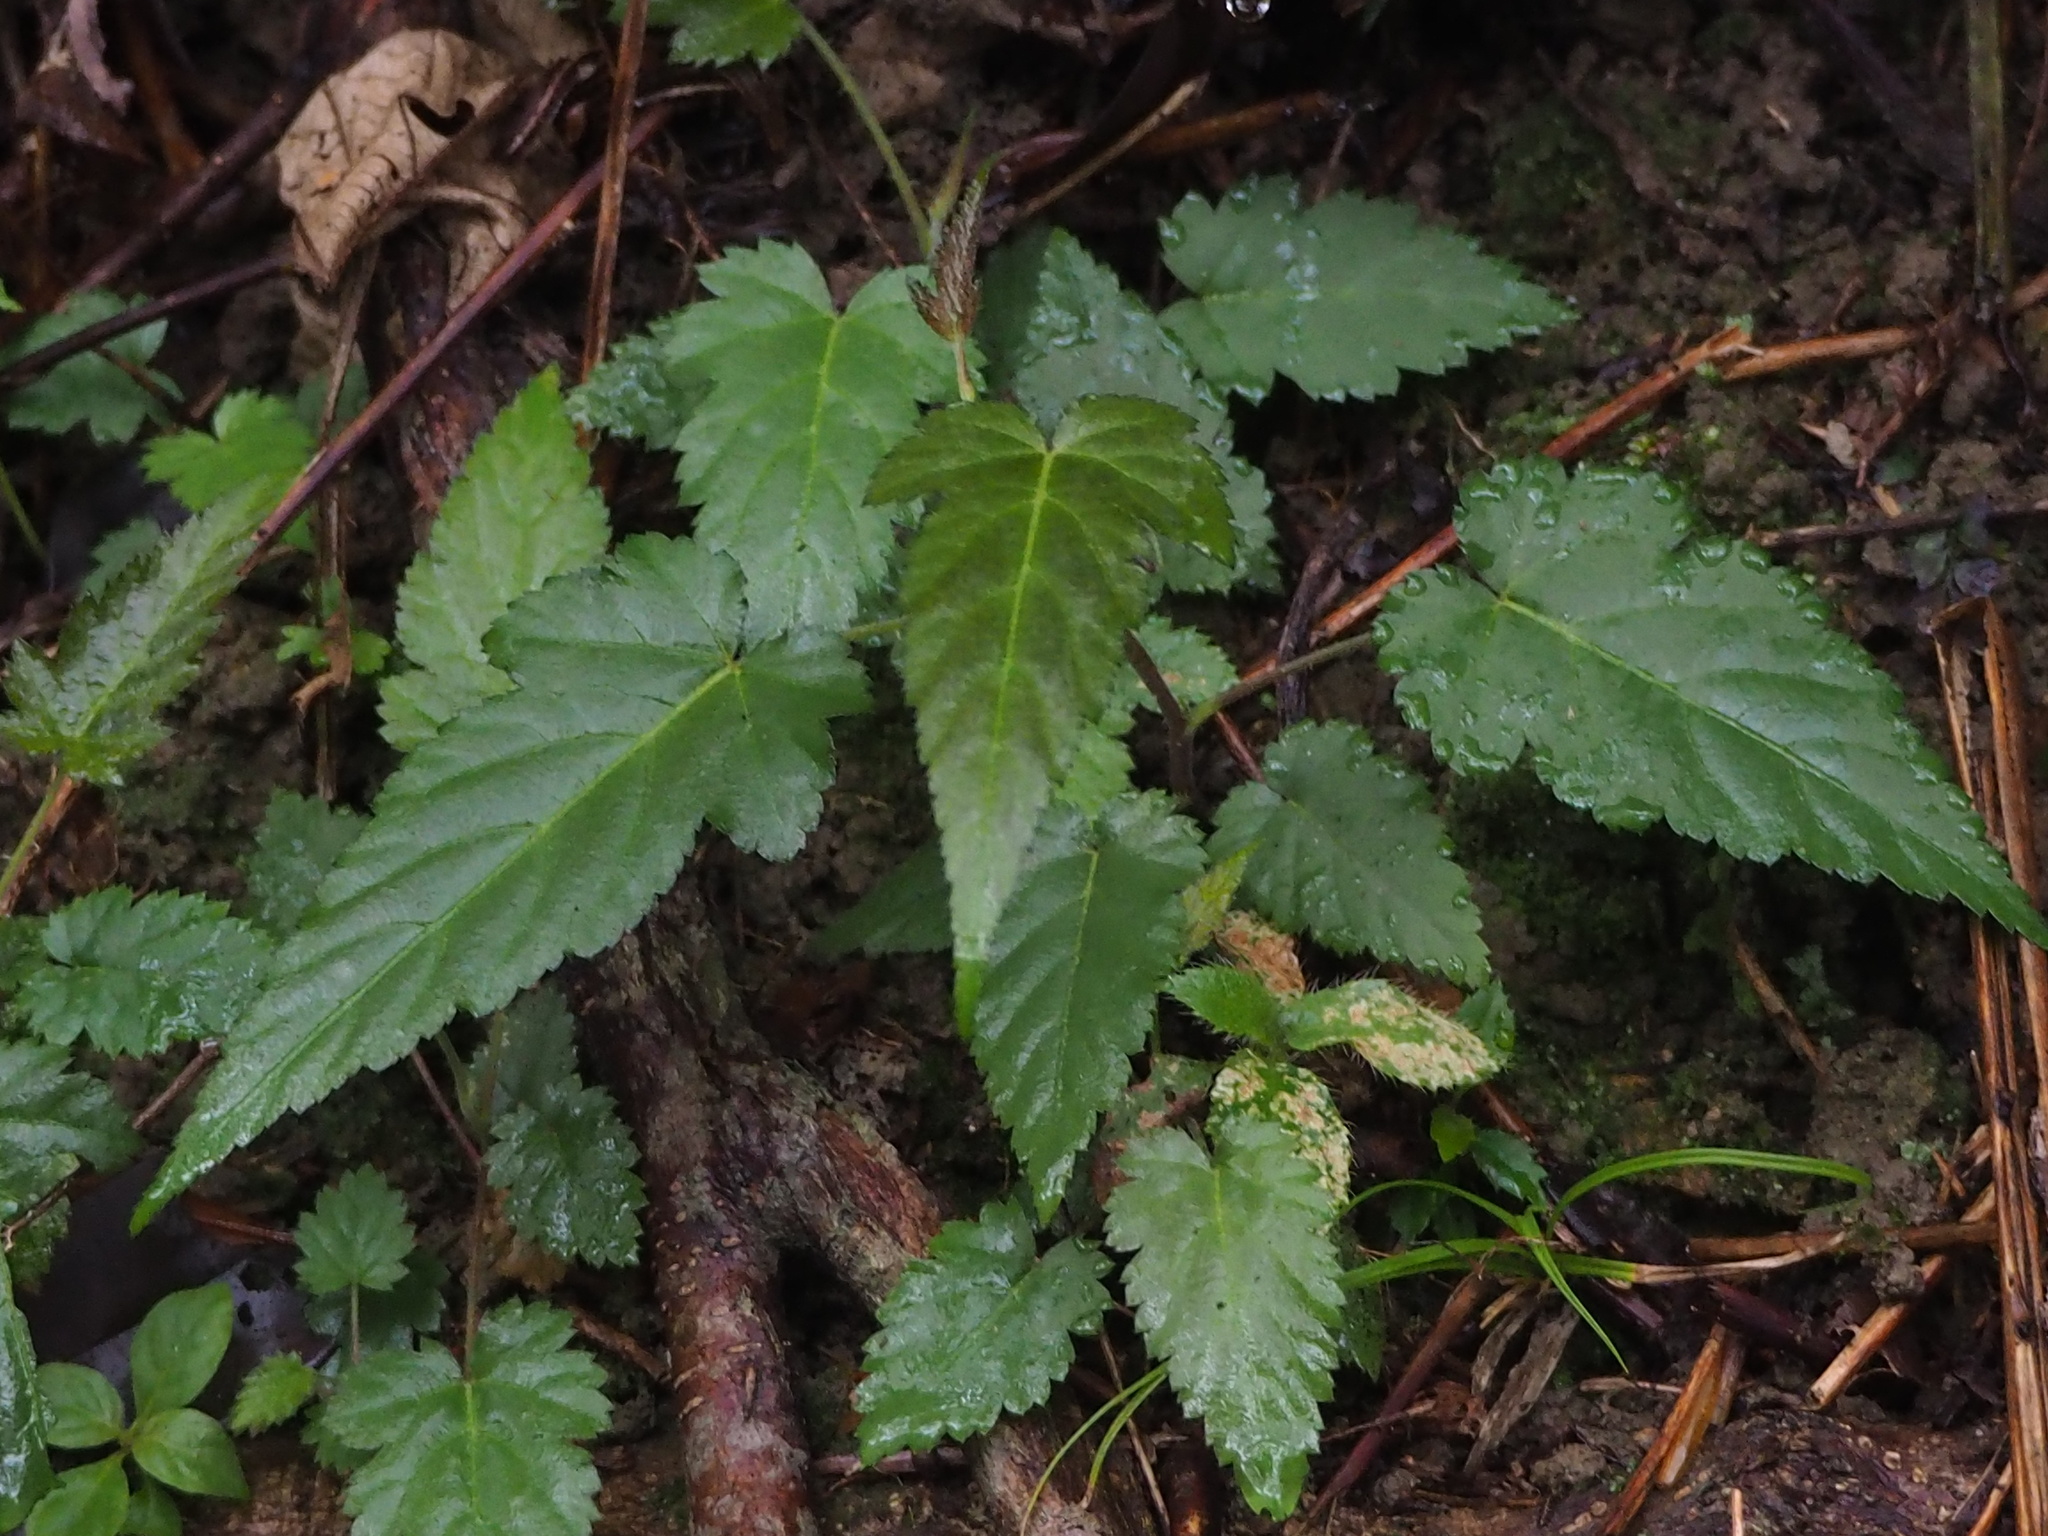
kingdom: Plantae
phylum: Tracheophyta
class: Magnoliopsida
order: Rosales
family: Rosaceae
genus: Rubus
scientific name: Rubus corchorifolius
